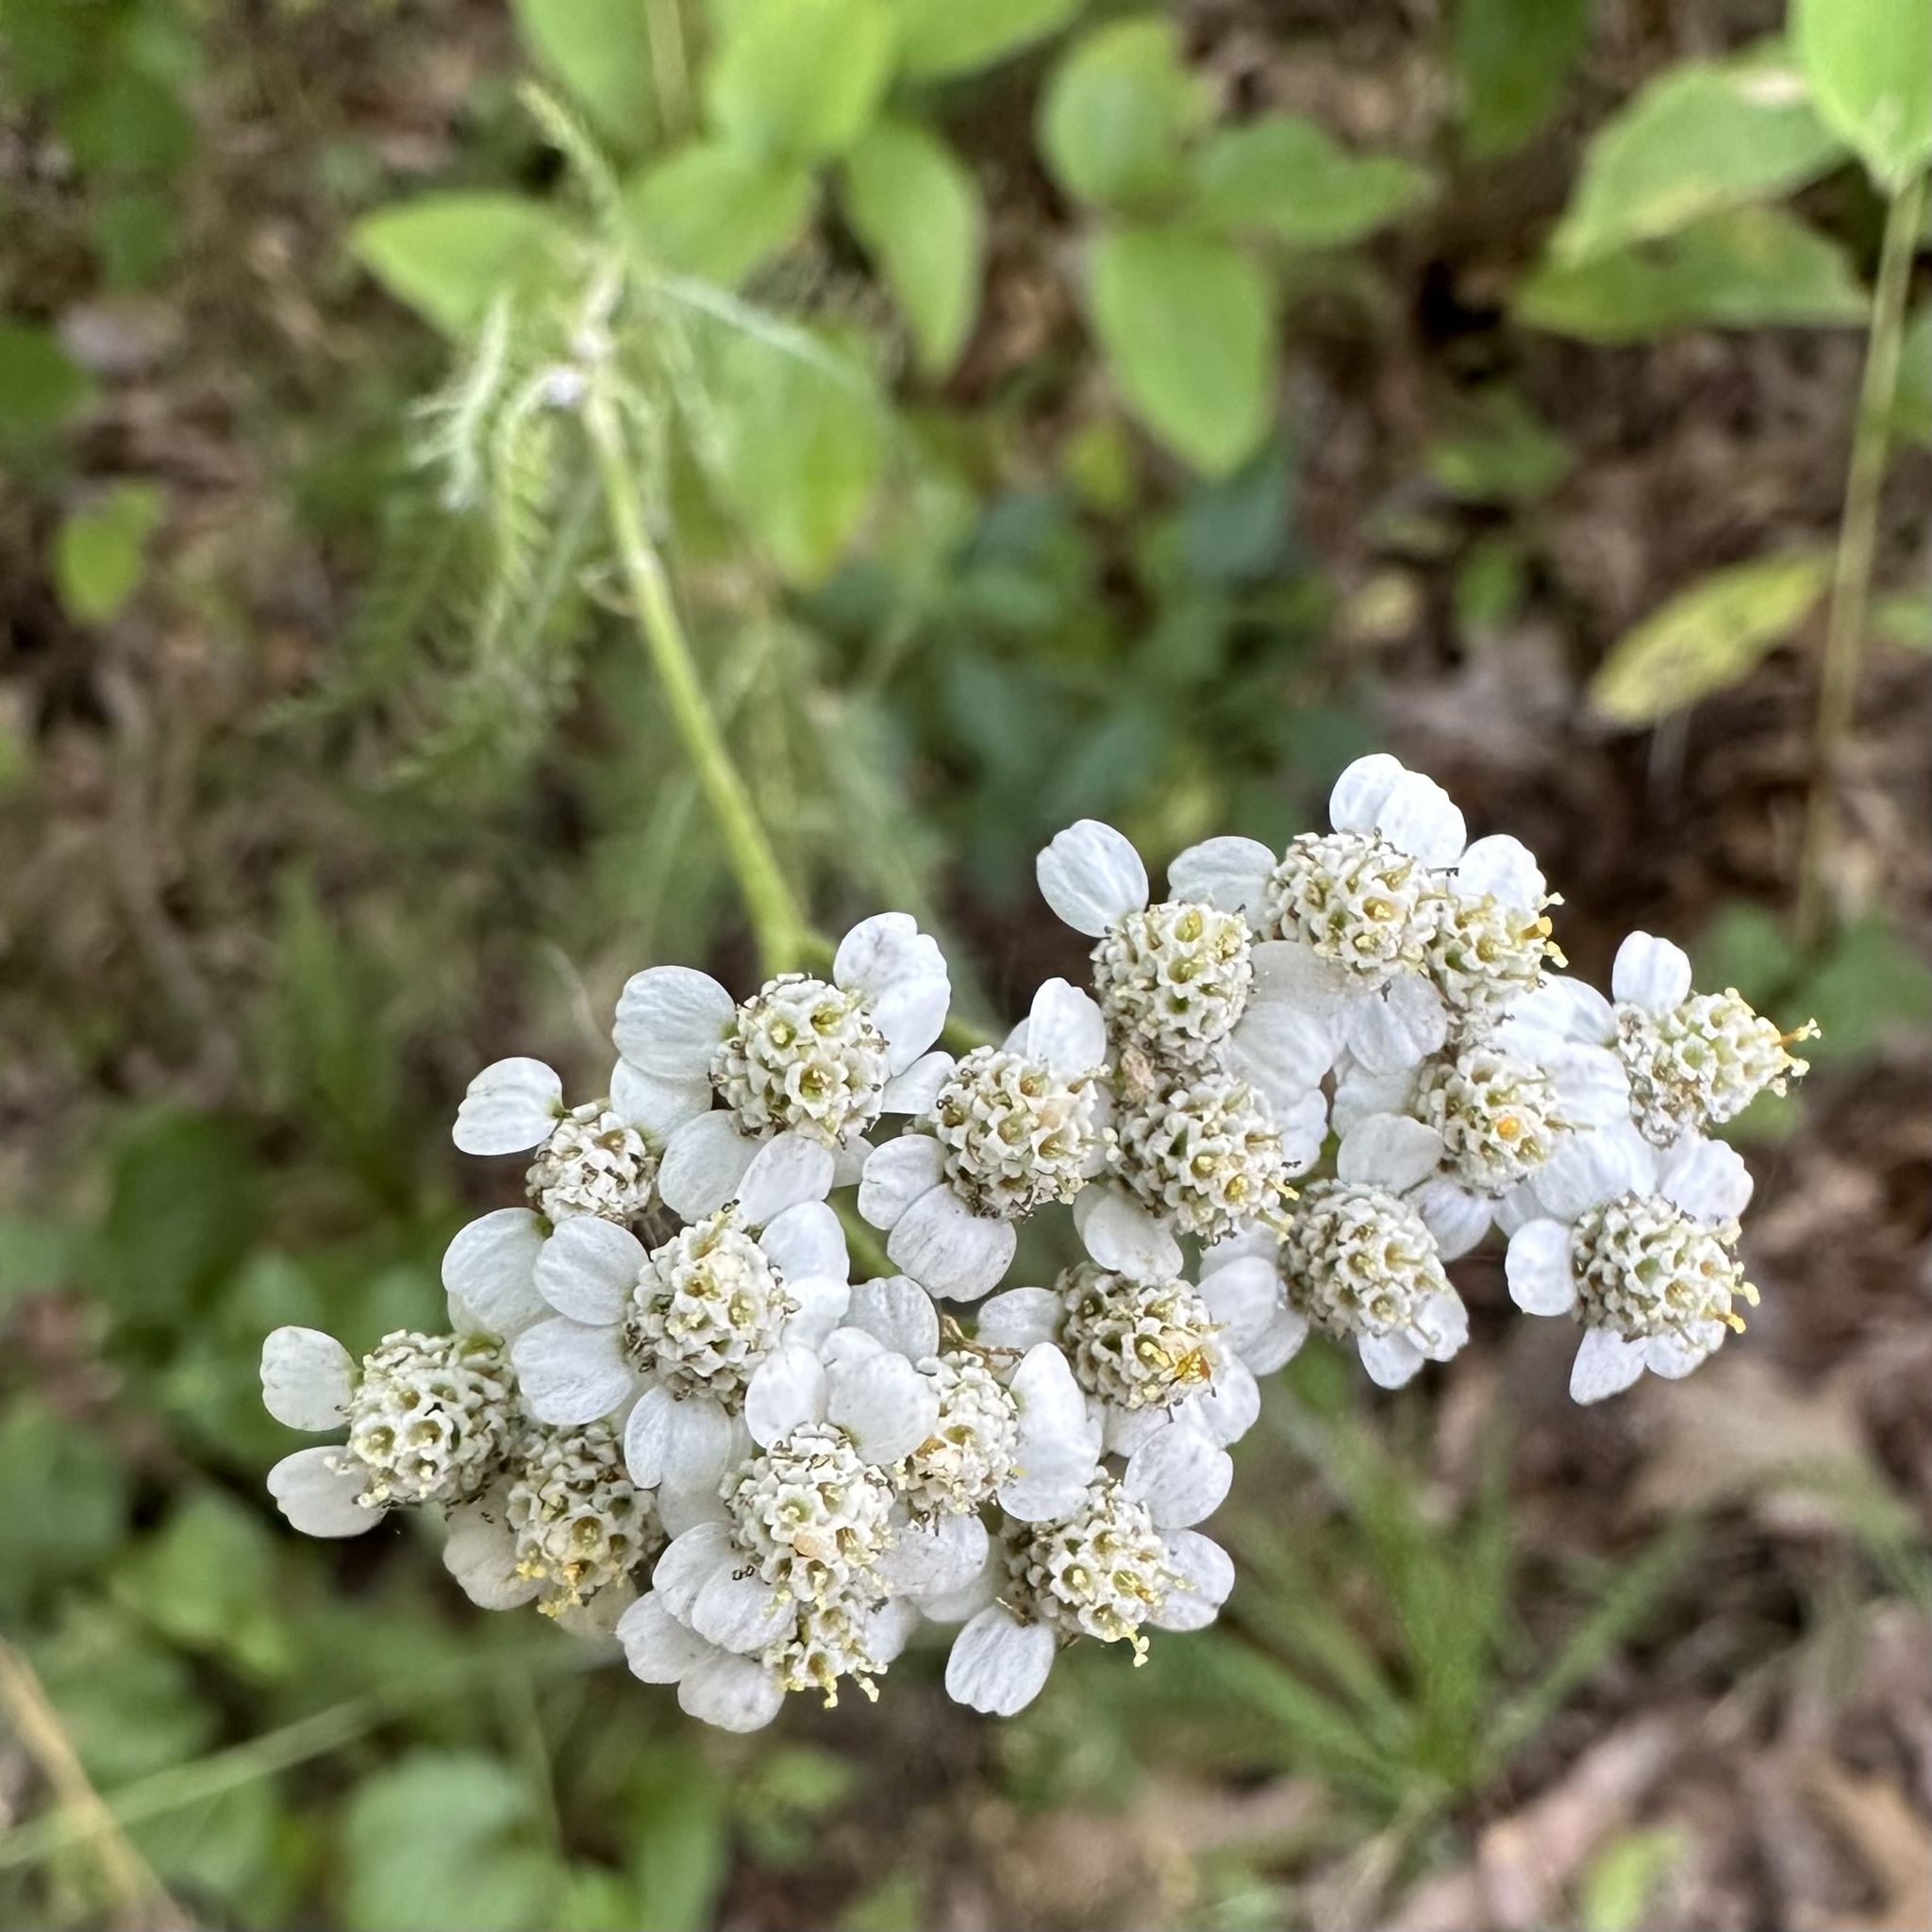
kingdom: Plantae
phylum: Tracheophyta
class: Magnoliopsida
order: Asterales
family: Asteraceae
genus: Achillea
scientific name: Achillea millefolium
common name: Yarrow
